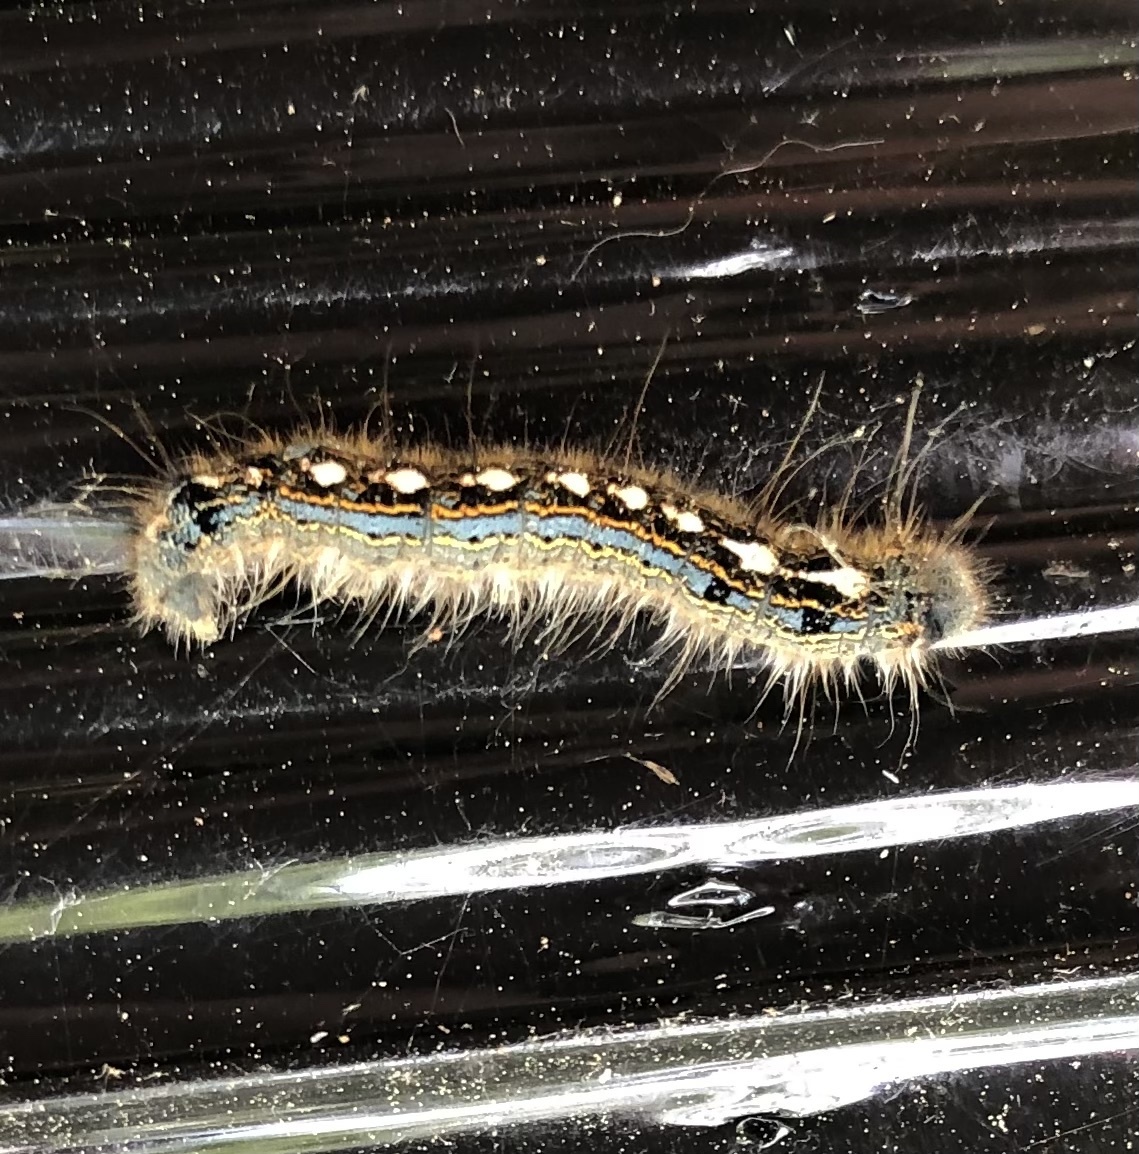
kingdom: Animalia
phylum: Arthropoda
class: Insecta
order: Lepidoptera
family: Lasiocampidae
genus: Malacosoma
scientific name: Malacosoma disstria
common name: Forest tent caterpillar
